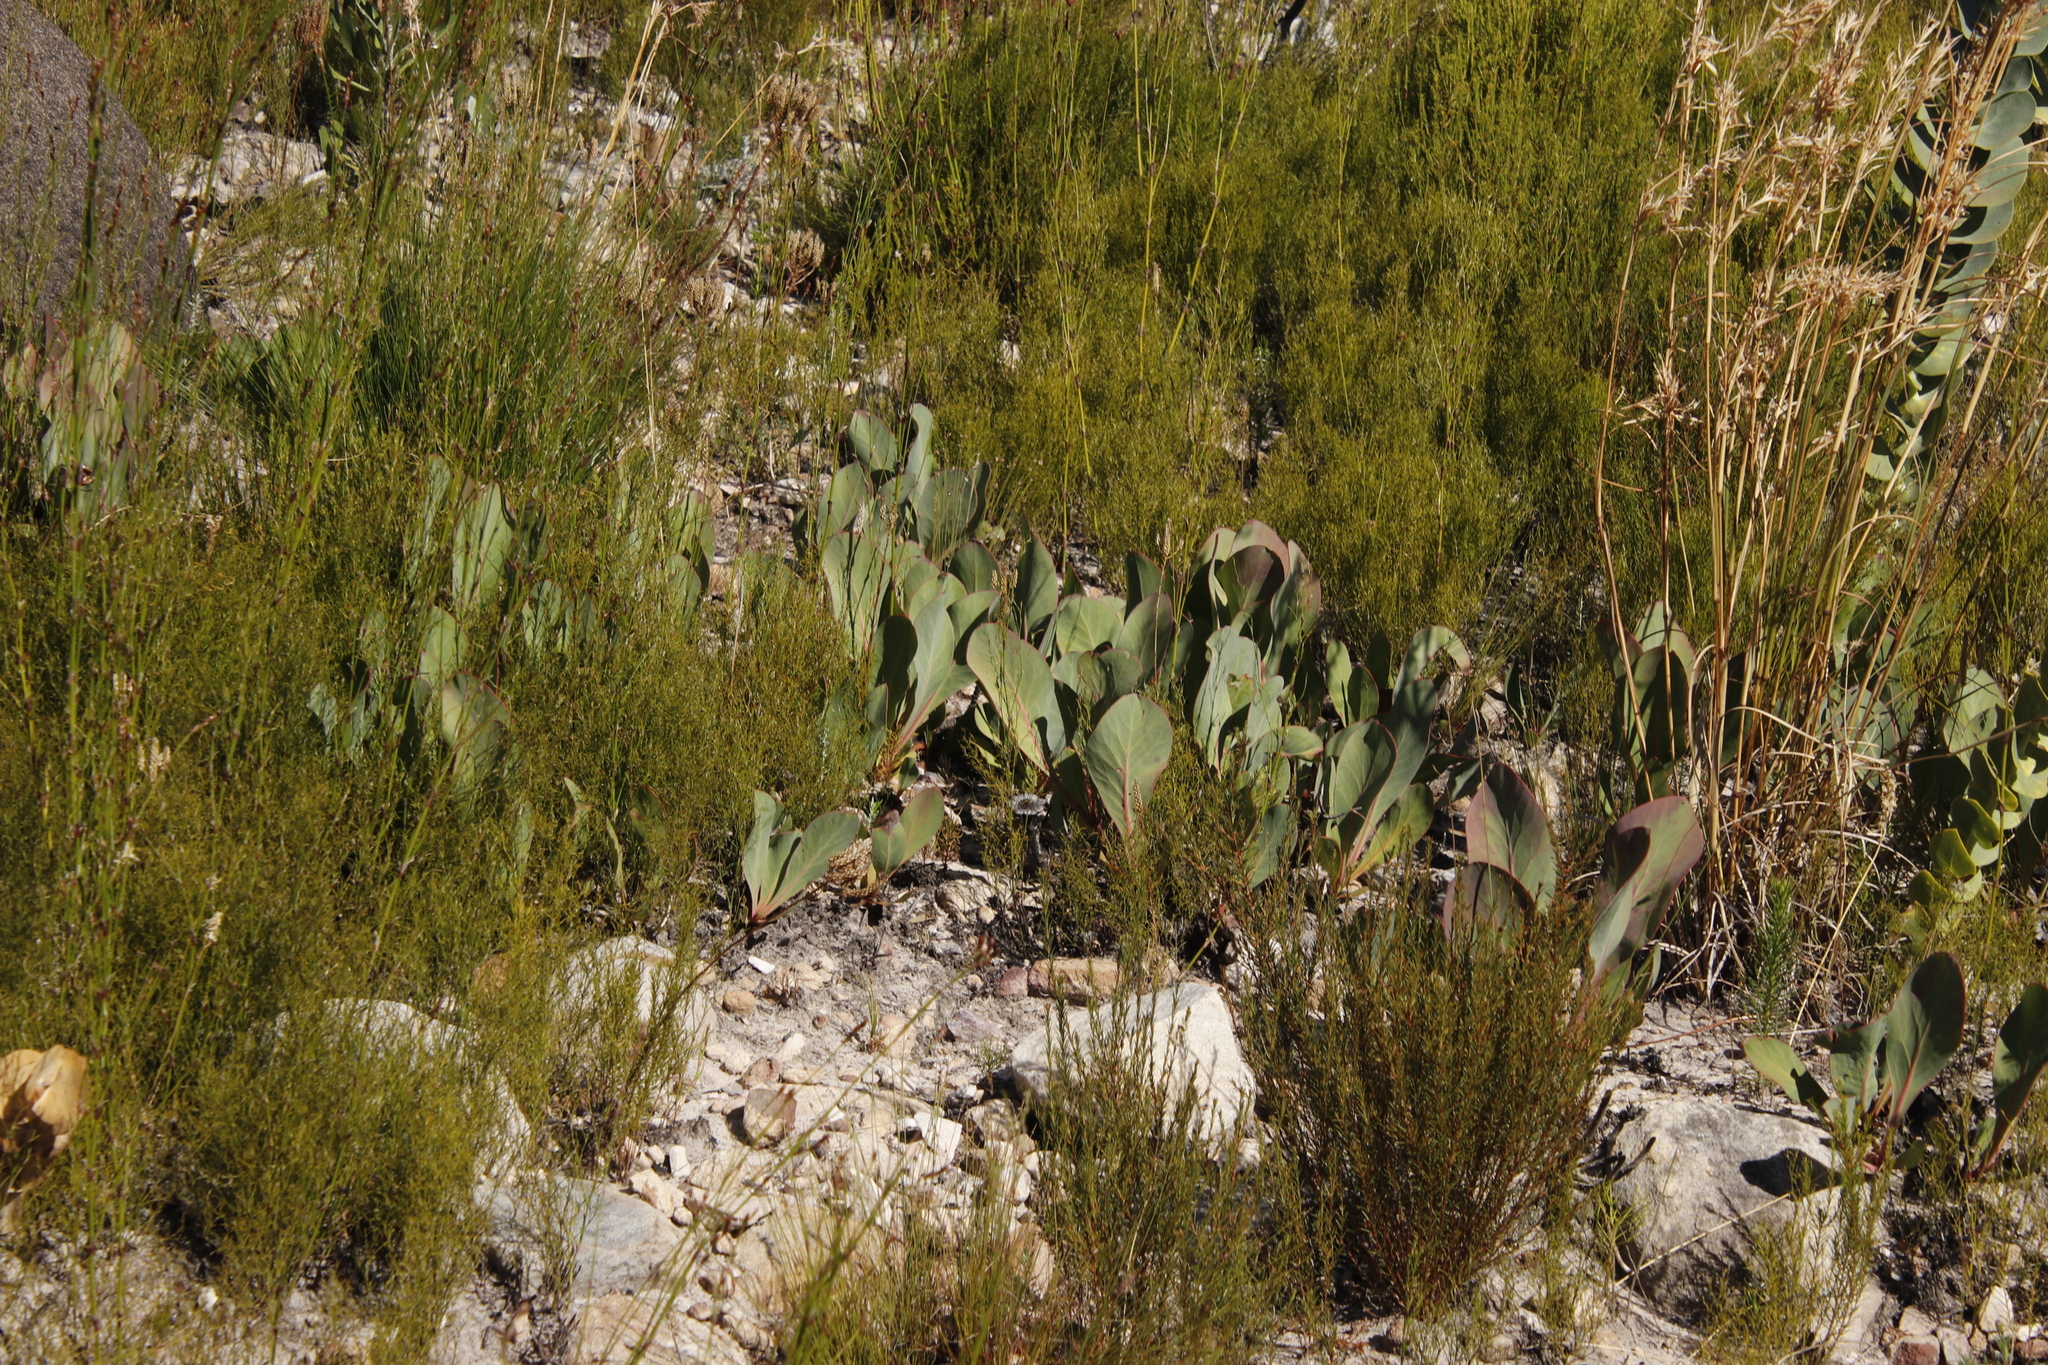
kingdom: Plantae
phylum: Tracheophyta
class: Magnoliopsida
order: Proteales
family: Proteaceae
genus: Protea
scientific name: Protea acaulos
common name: Common ground sugarbush
